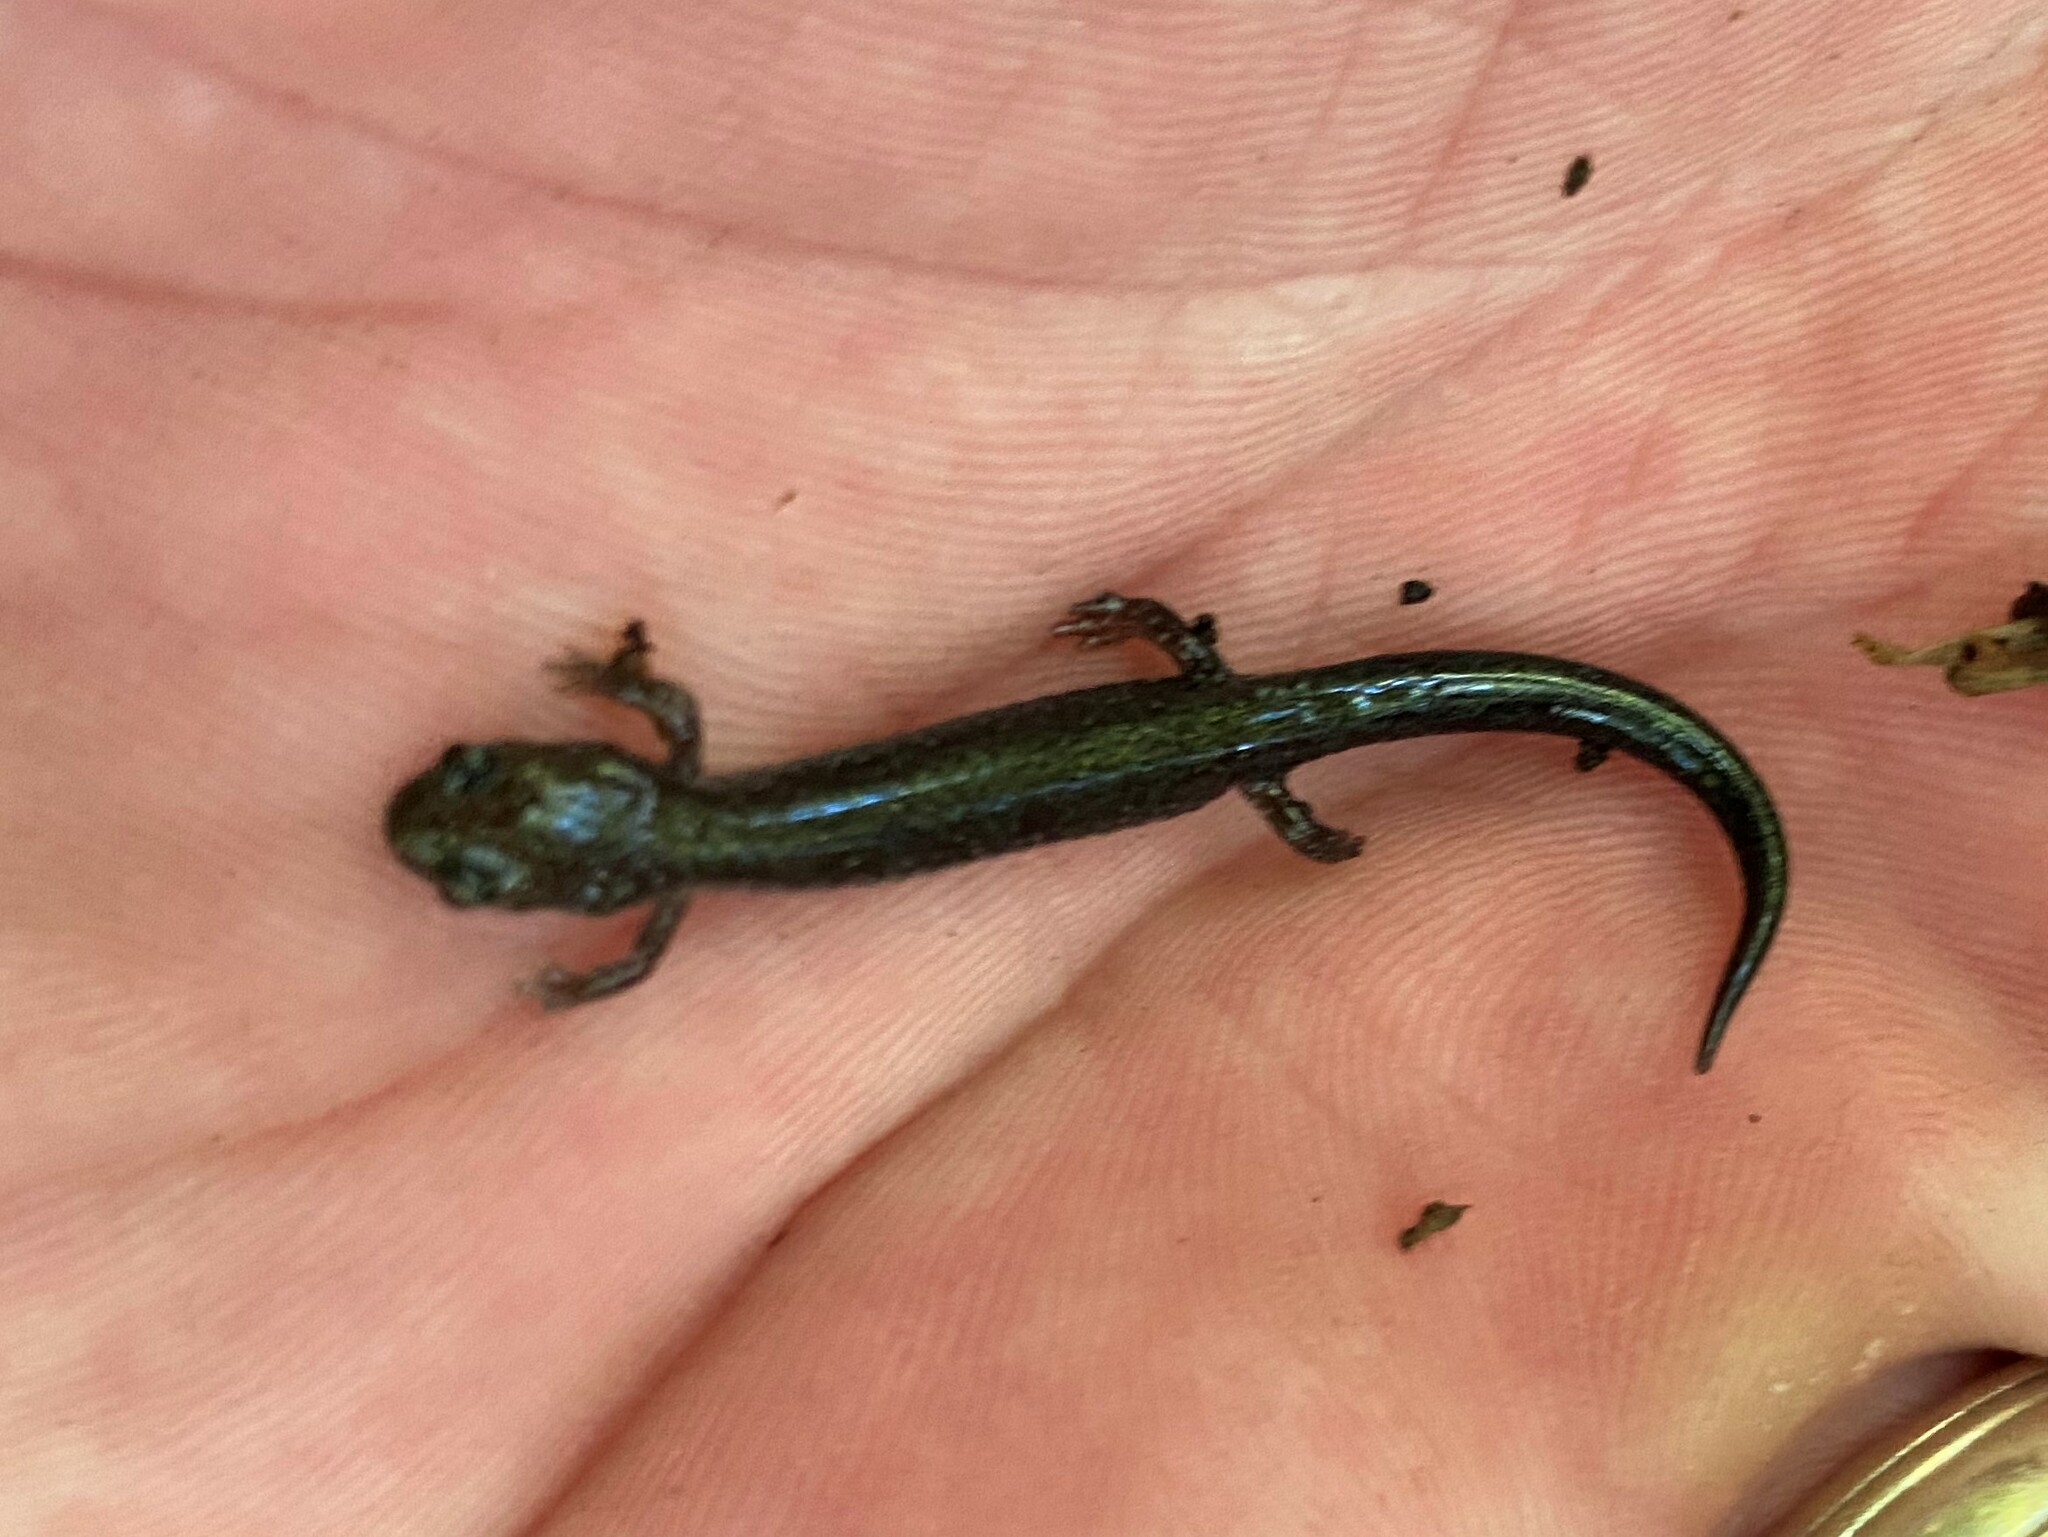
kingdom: Animalia
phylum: Chordata
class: Amphibia
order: Caudata
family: Plethodontidae
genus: Plethodon
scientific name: Plethodon cinereus
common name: Redback salamander
